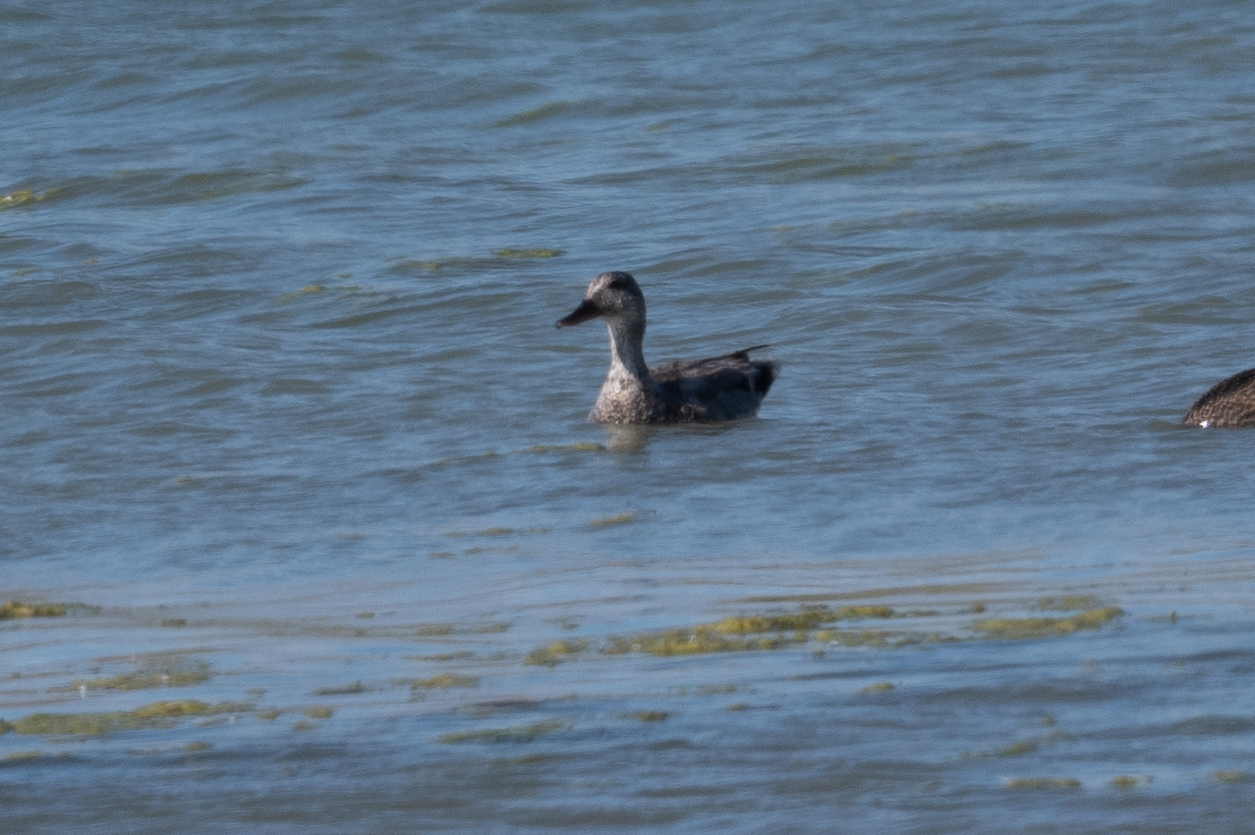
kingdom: Animalia
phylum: Chordata
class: Aves
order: Anseriformes
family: Anatidae
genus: Mareca
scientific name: Mareca strepera
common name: Gadwall
